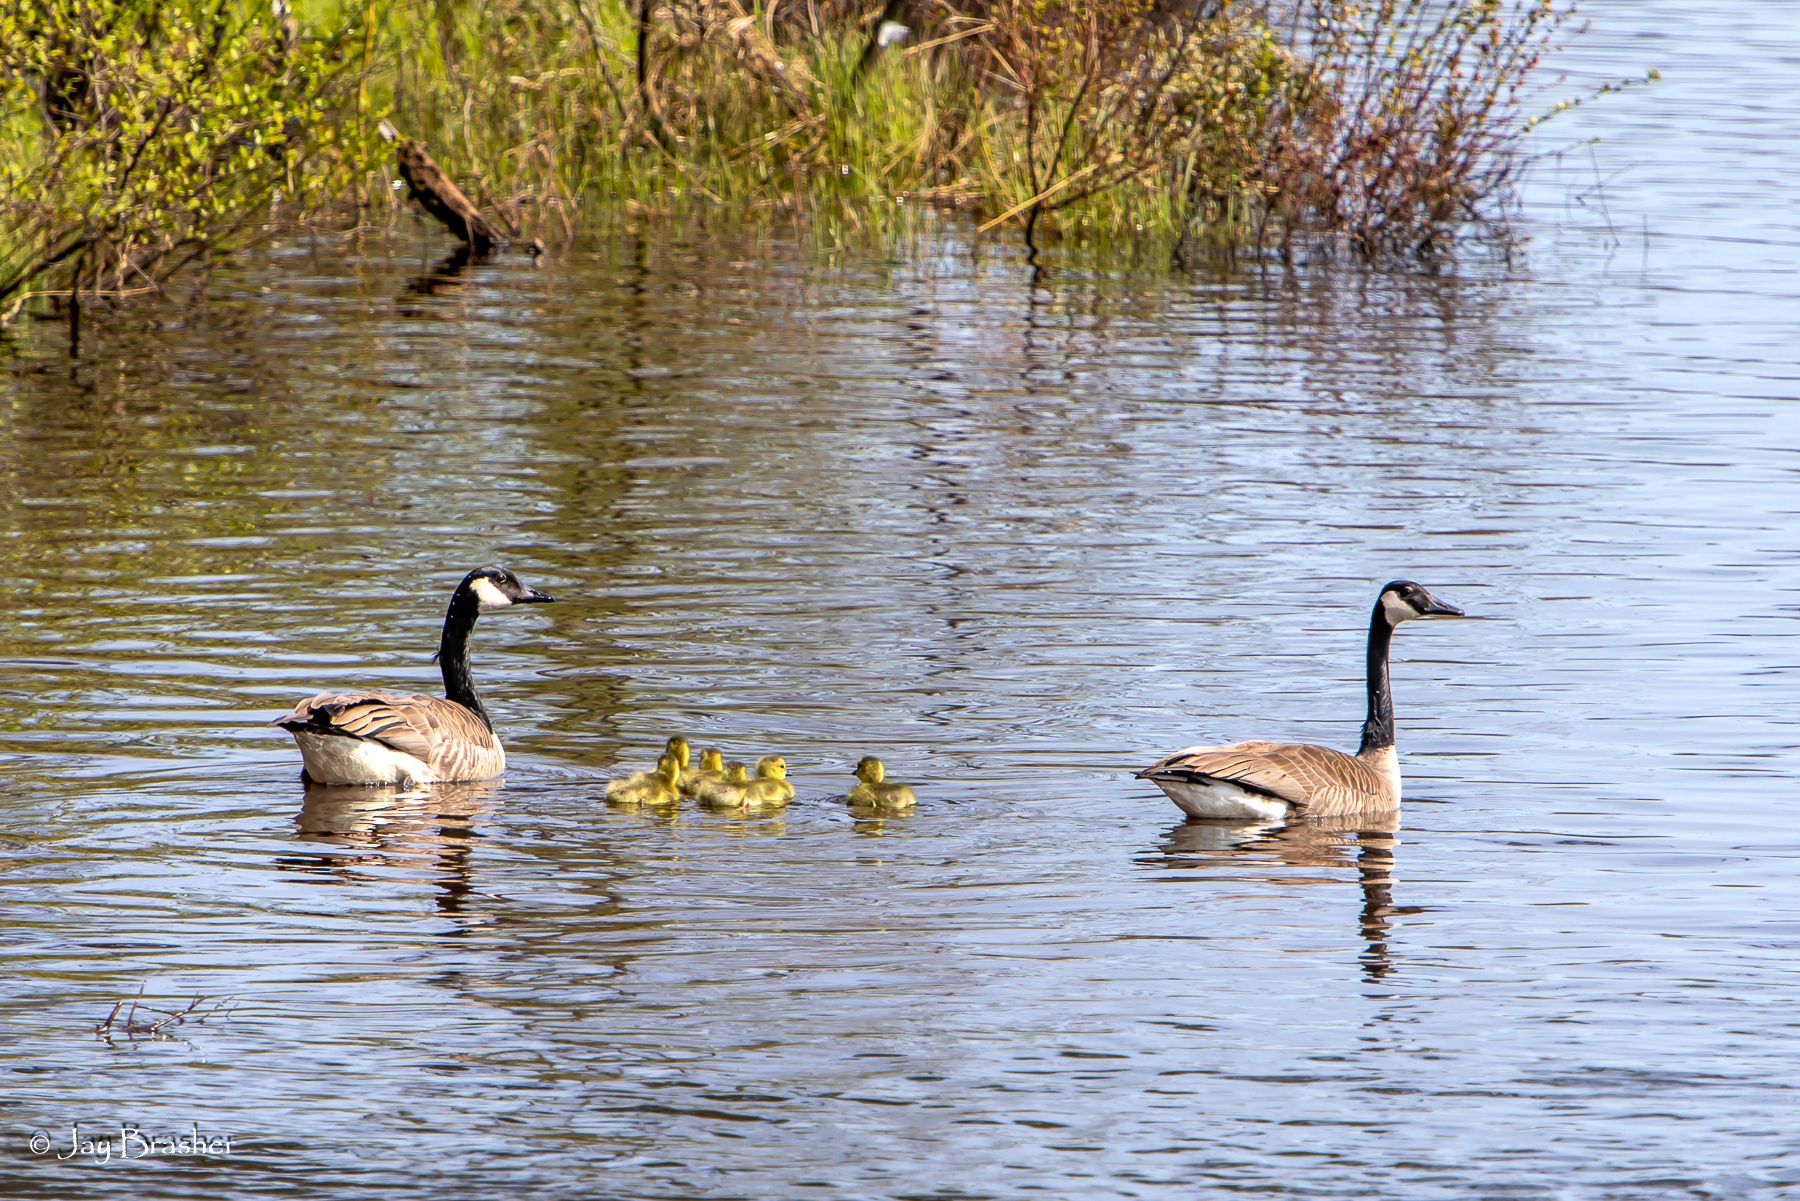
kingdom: Animalia
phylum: Chordata
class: Aves
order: Anseriformes
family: Anatidae
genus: Branta
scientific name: Branta canadensis
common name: Canada goose
